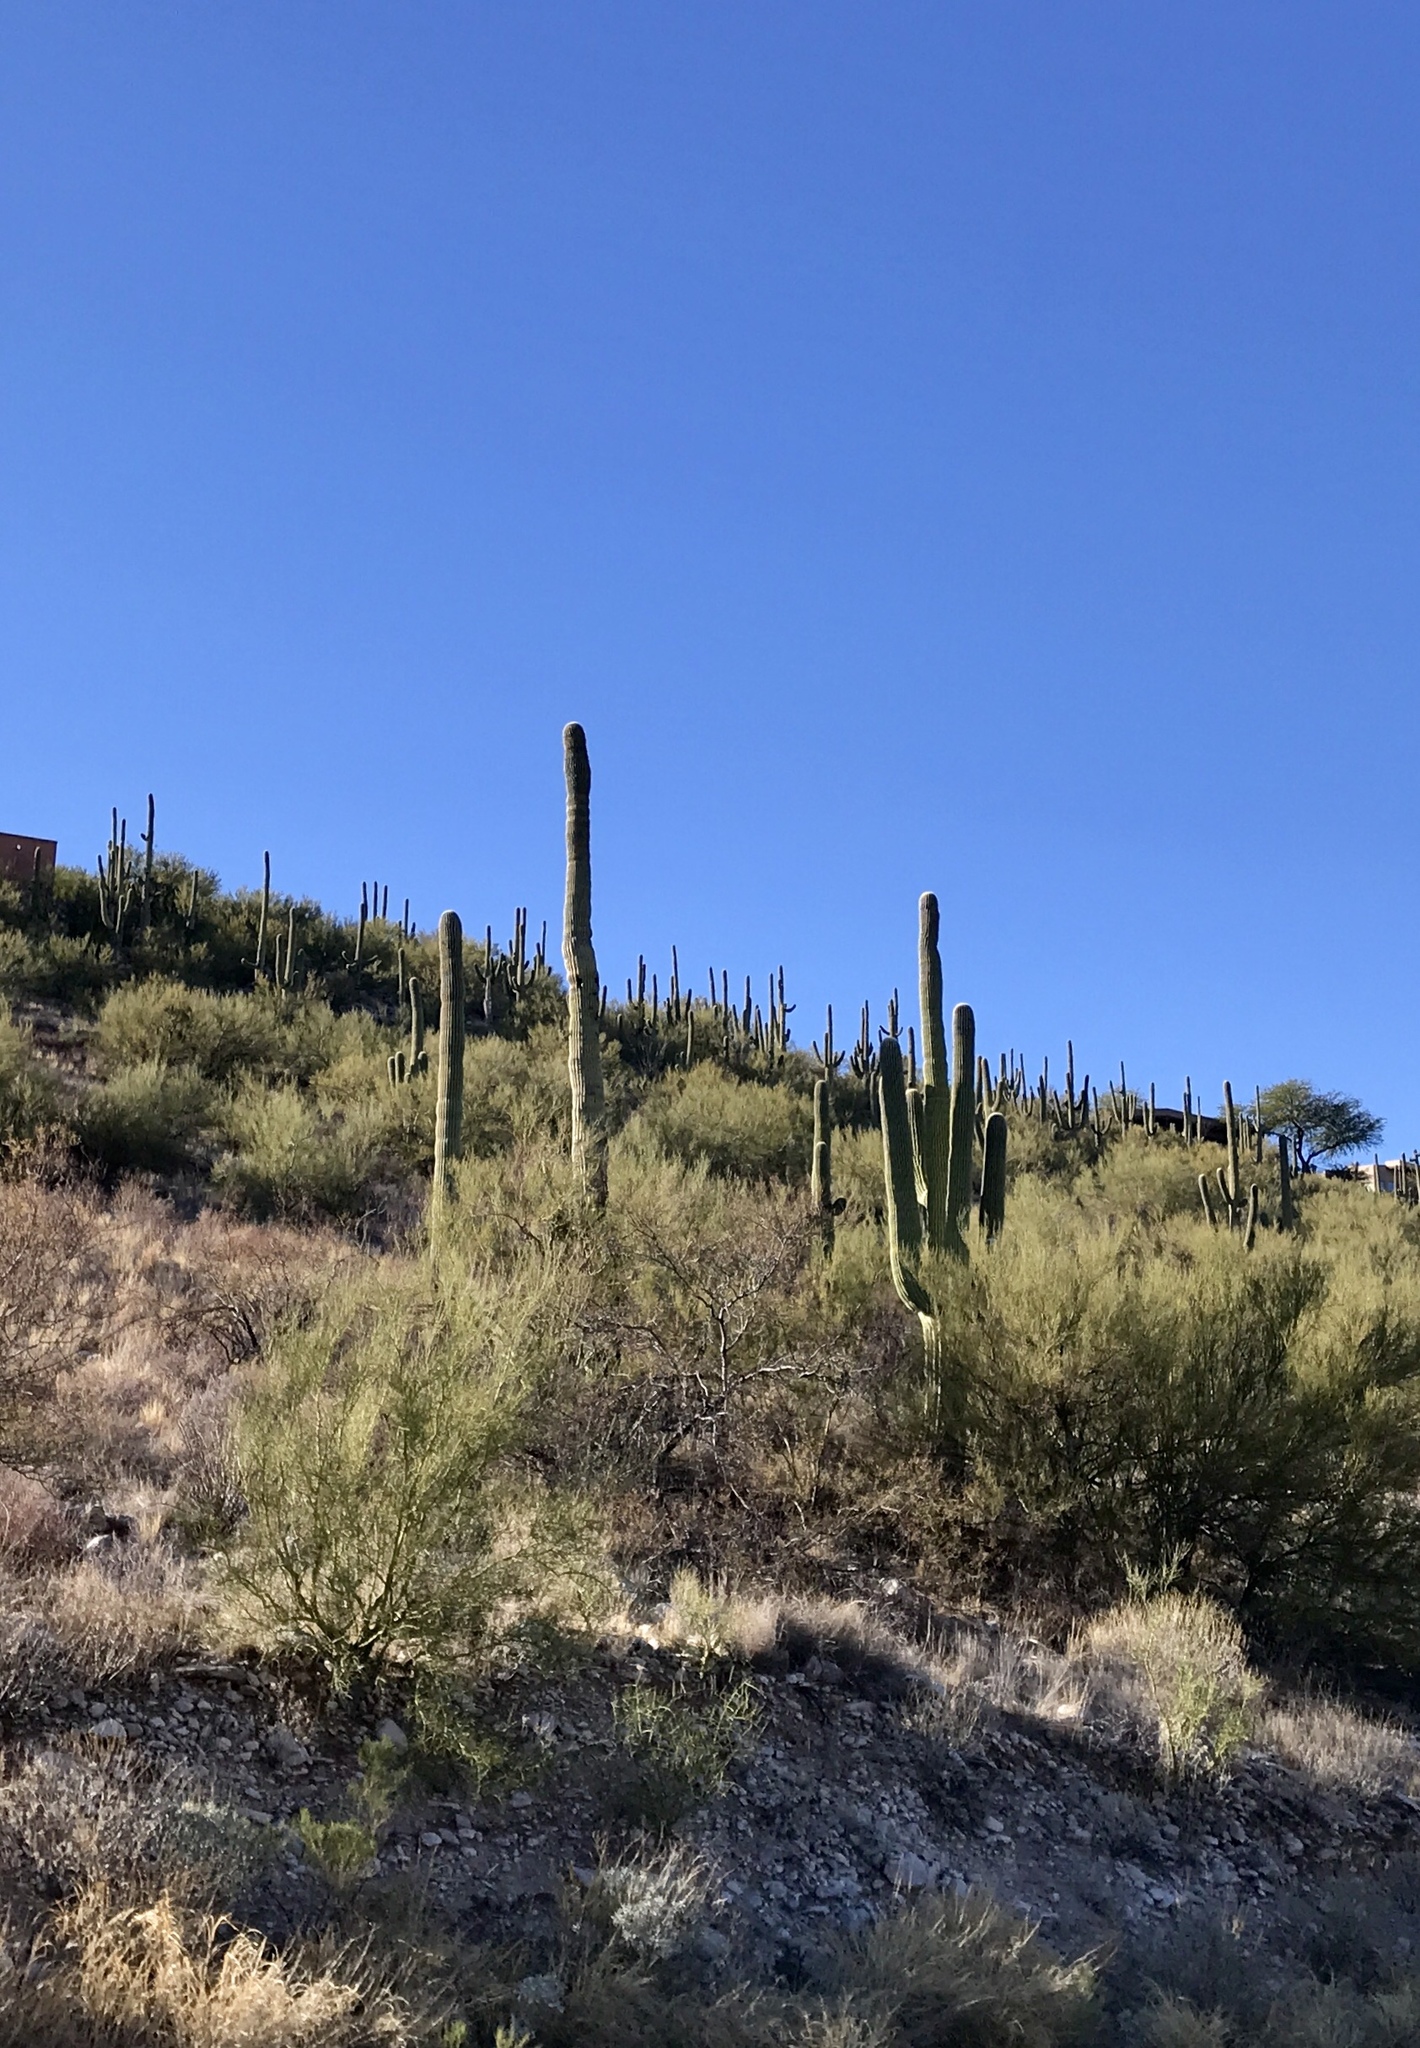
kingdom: Plantae
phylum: Tracheophyta
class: Magnoliopsida
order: Caryophyllales
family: Cactaceae
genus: Carnegiea
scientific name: Carnegiea gigantea
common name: Saguaro
